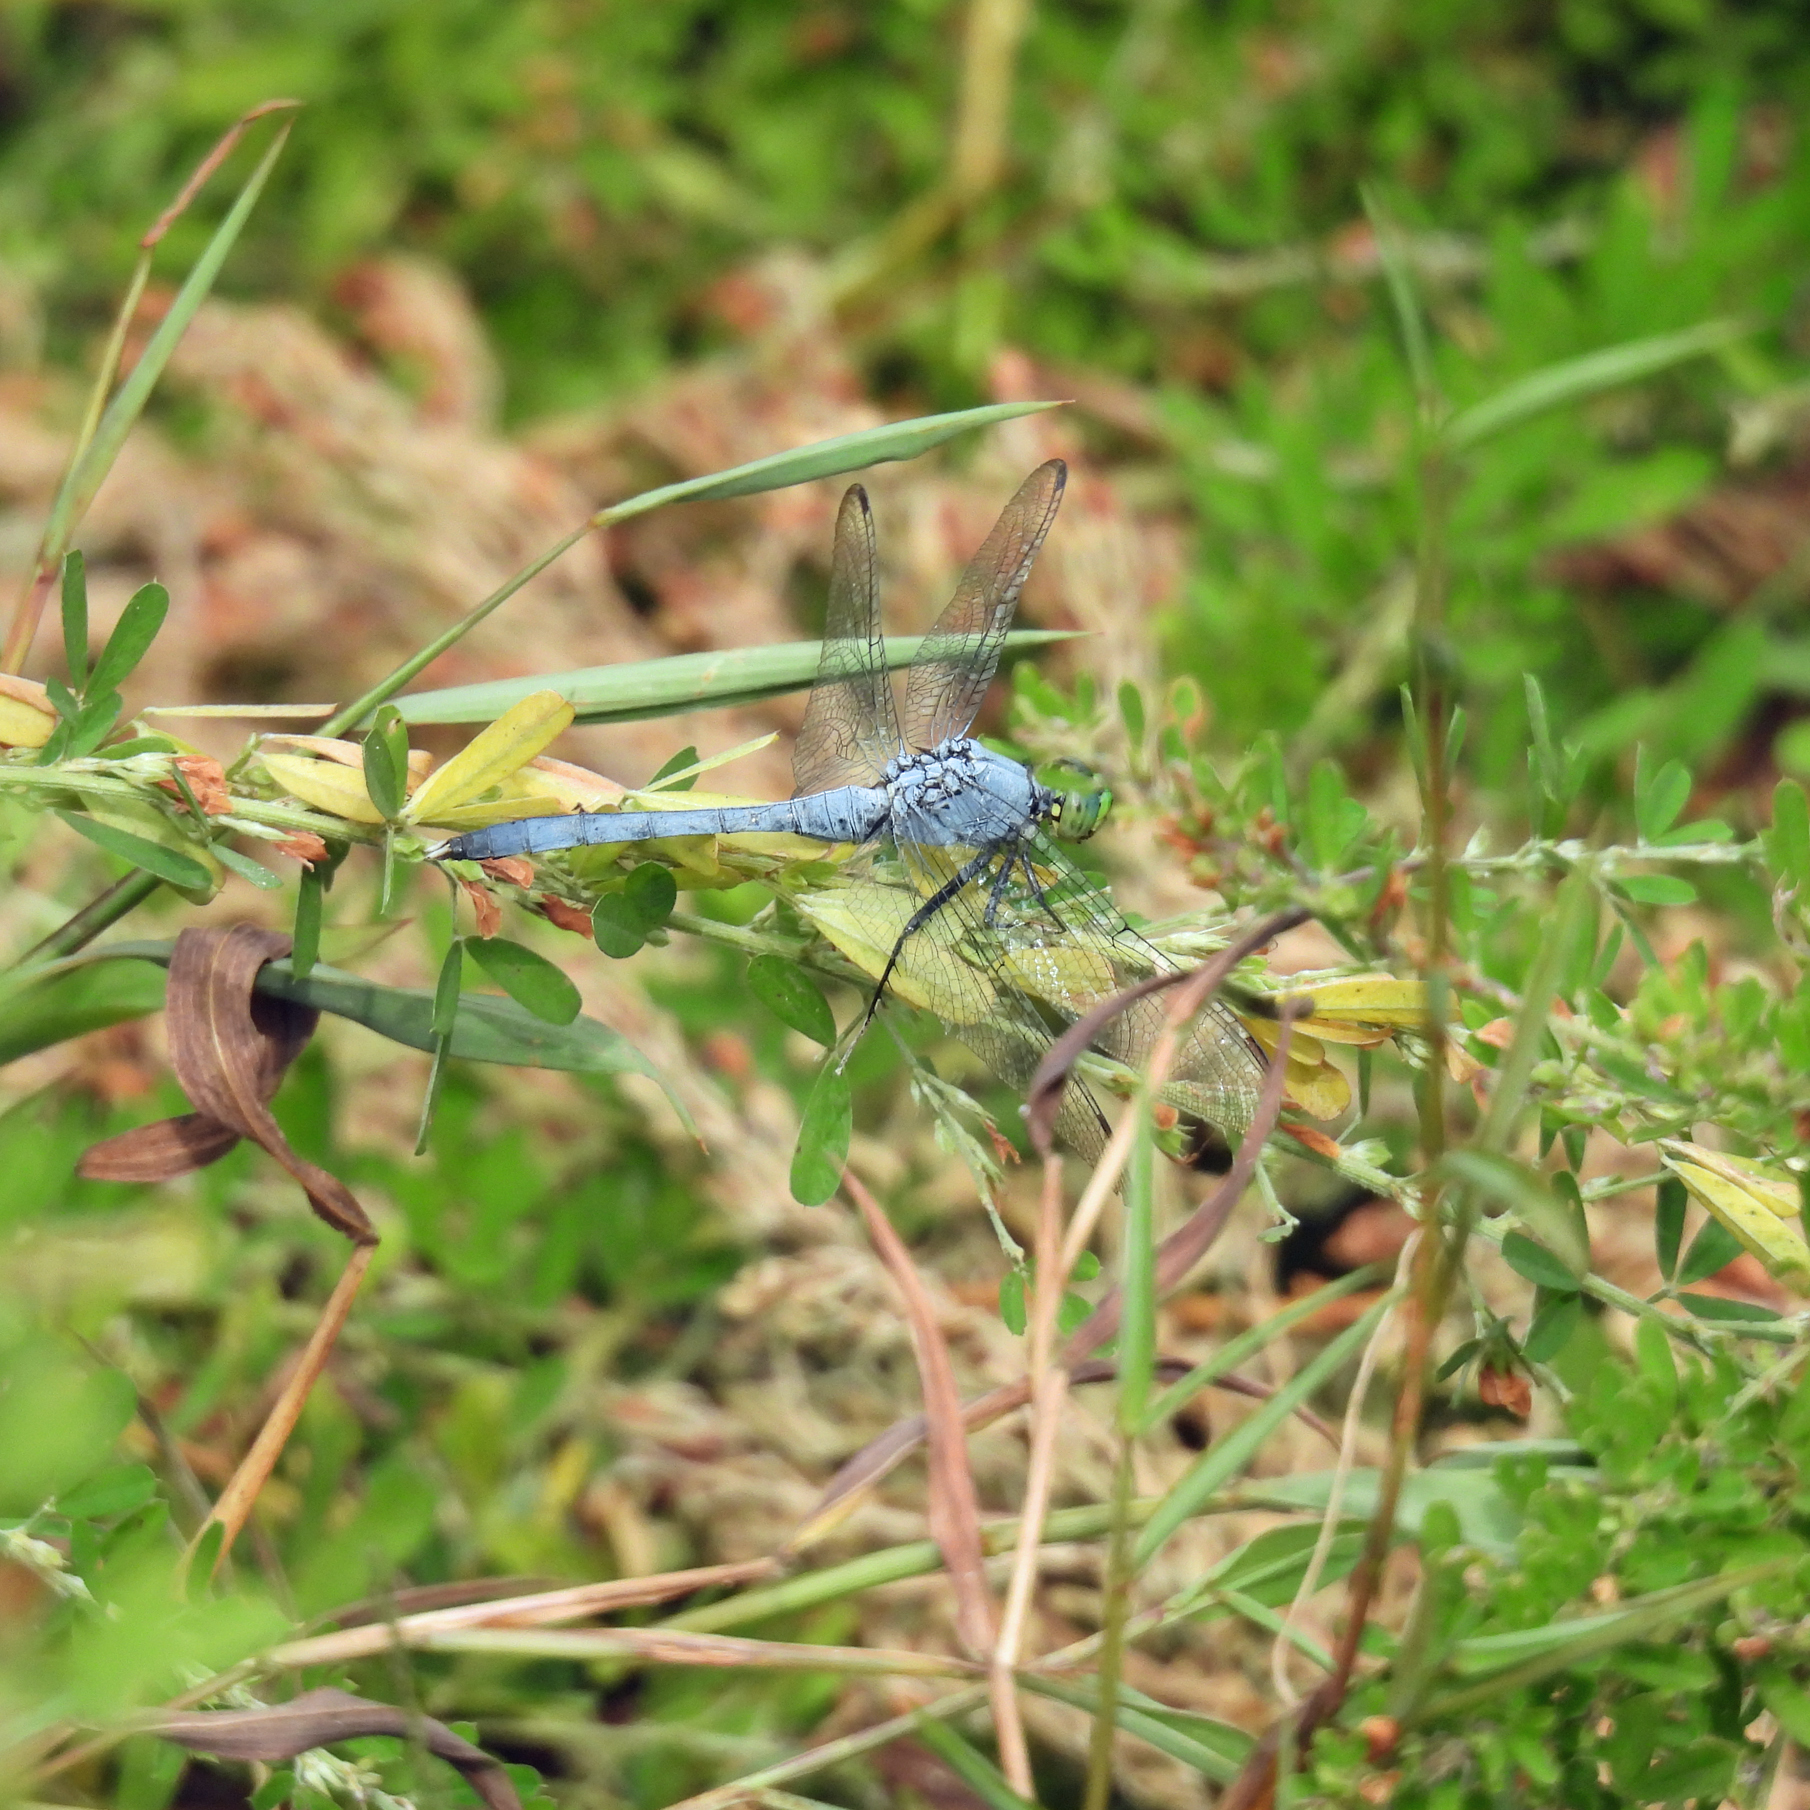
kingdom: Animalia
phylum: Arthropoda
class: Insecta
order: Odonata
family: Libellulidae
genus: Erythemis
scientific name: Erythemis simplicicollis
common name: Eastern pondhawk
